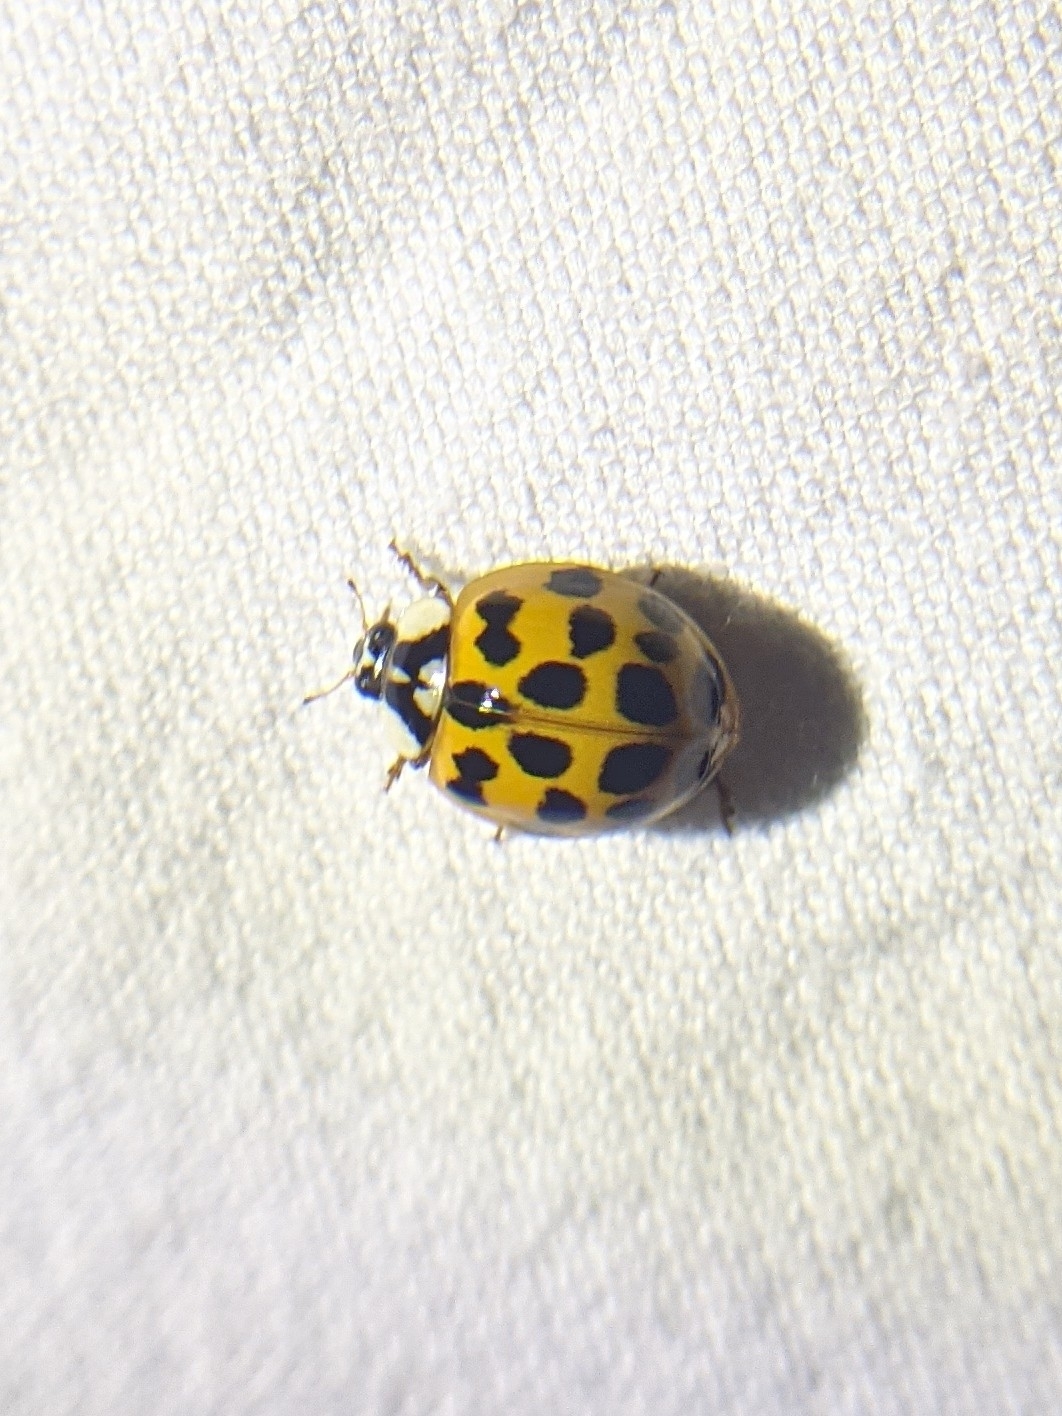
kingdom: Animalia
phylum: Arthropoda
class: Insecta
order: Coleoptera
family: Coccinellidae
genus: Harmonia
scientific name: Harmonia axyridis
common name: Harlequin ladybird
